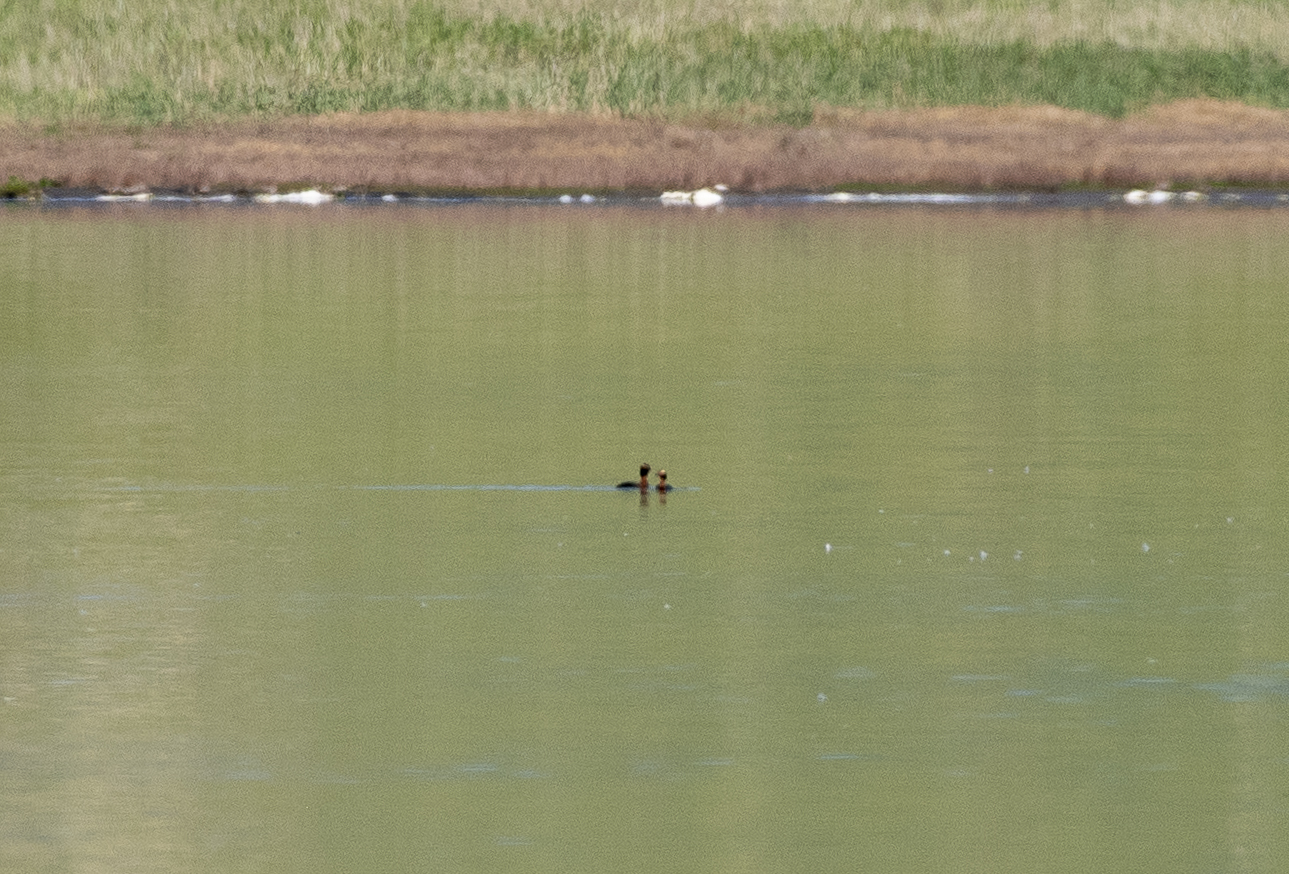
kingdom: Animalia
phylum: Chordata
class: Aves
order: Podicipediformes
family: Podicipedidae
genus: Podiceps
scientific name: Podiceps auritus
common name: Horned grebe
